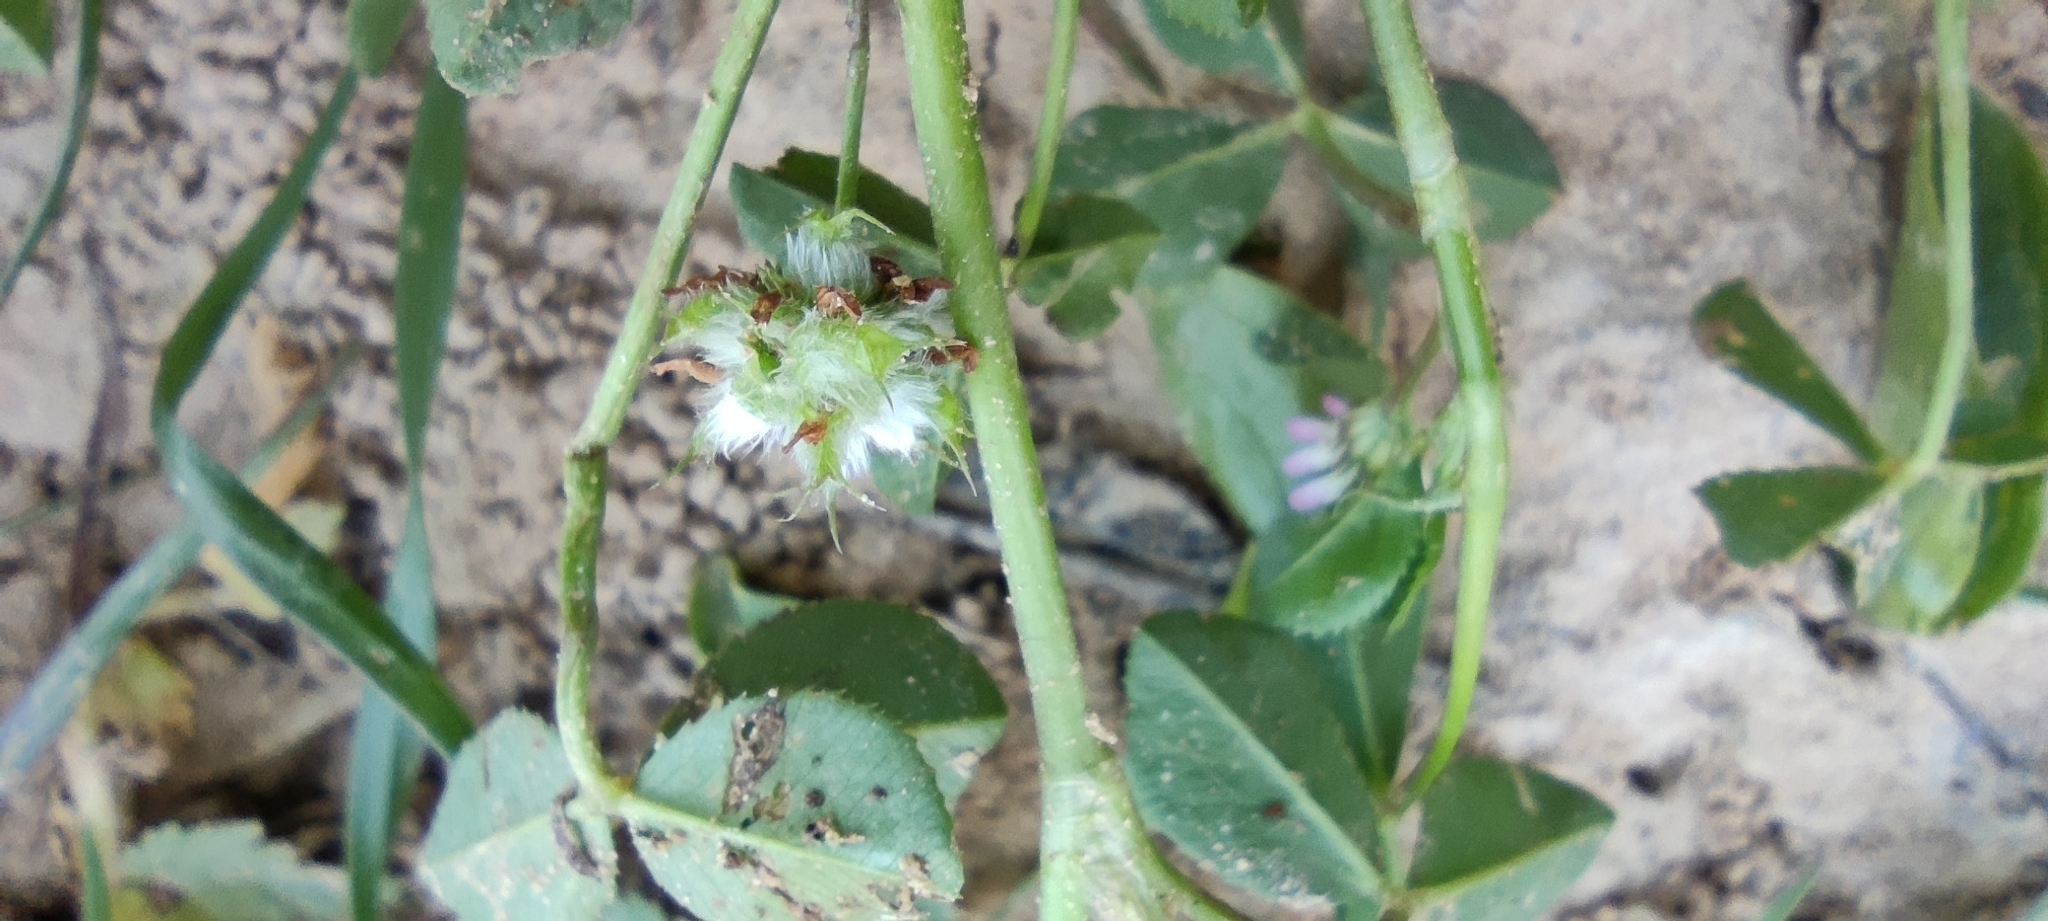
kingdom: Plantae
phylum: Tracheophyta
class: Magnoliopsida
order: Fabales
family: Fabaceae
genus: Trifolium
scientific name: Trifolium resupinatum
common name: Reversed clover
